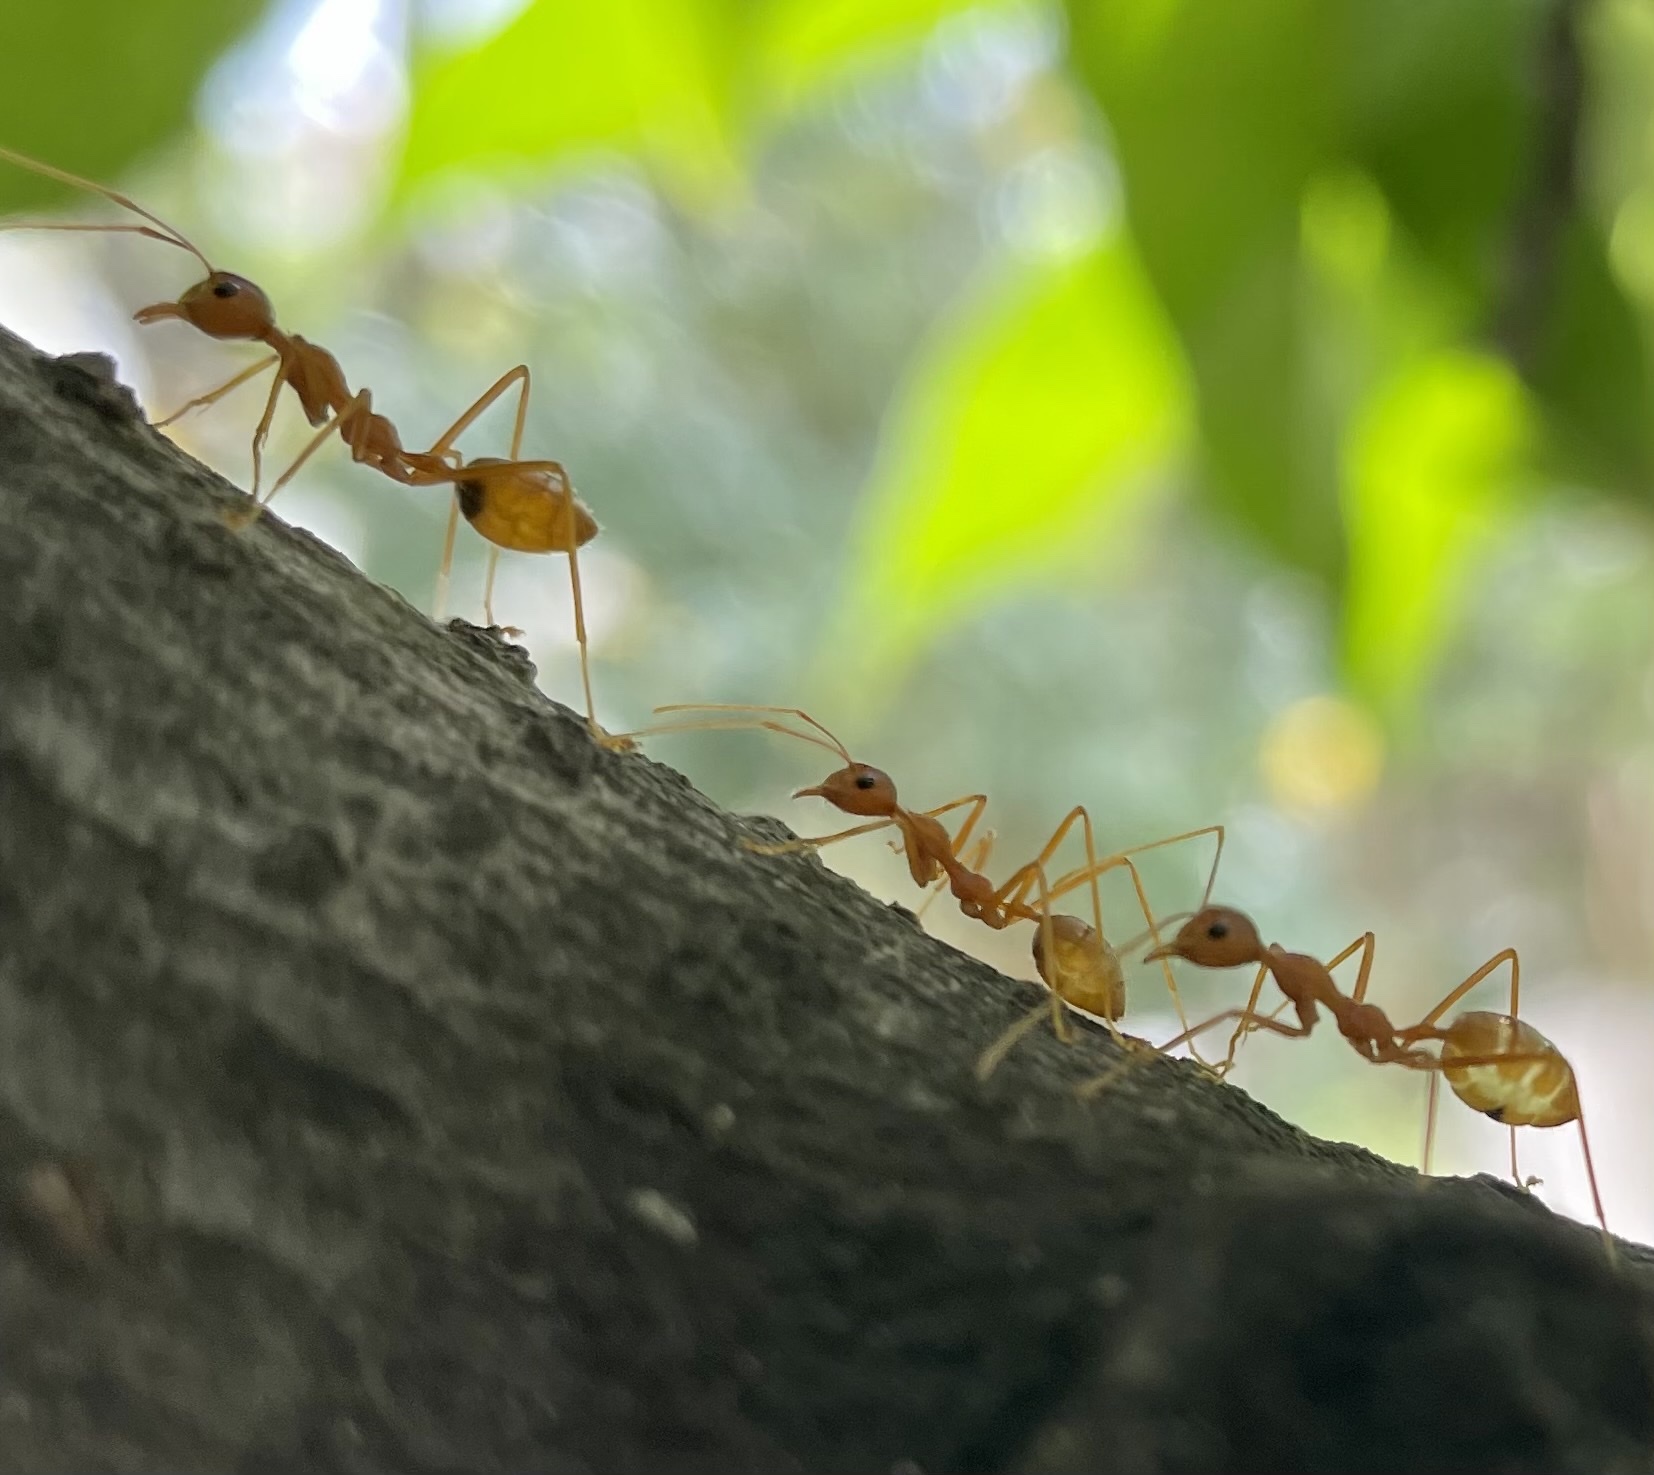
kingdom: Animalia
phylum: Arthropoda
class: Insecta
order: Hymenoptera
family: Formicidae
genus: Oecophylla
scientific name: Oecophylla smaragdina
